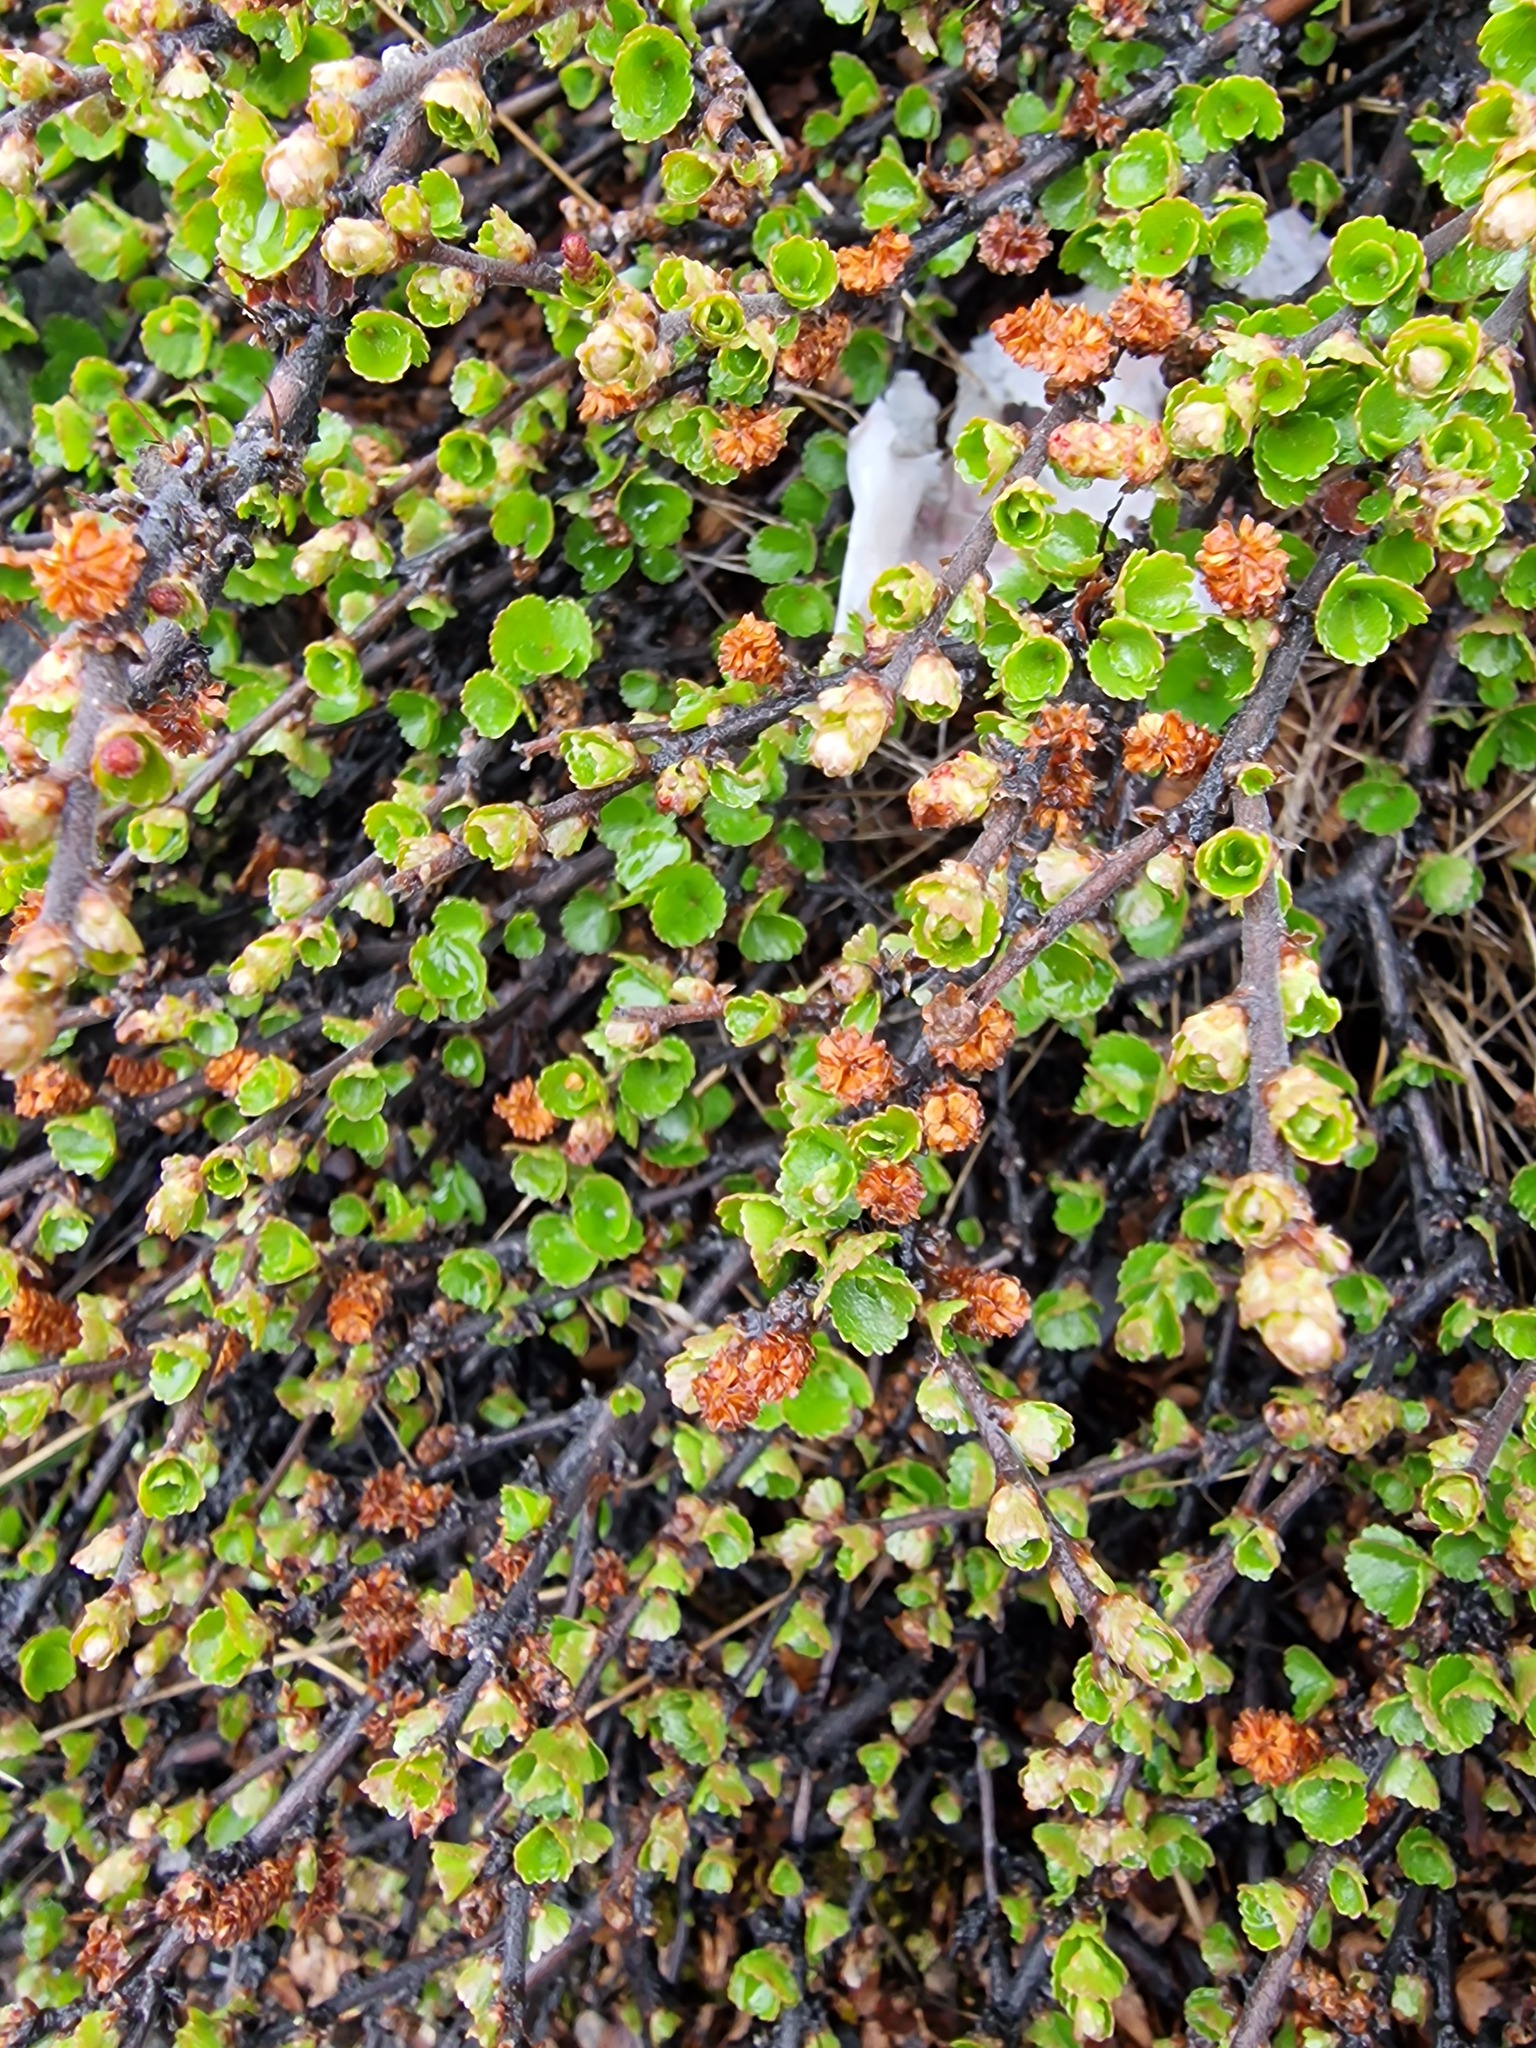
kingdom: Plantae
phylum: Tracheophyta
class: Magnoliopsida
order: Fagales
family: Betulaceae
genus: Betula
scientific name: Betula nana
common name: Arctic dwarf birch
